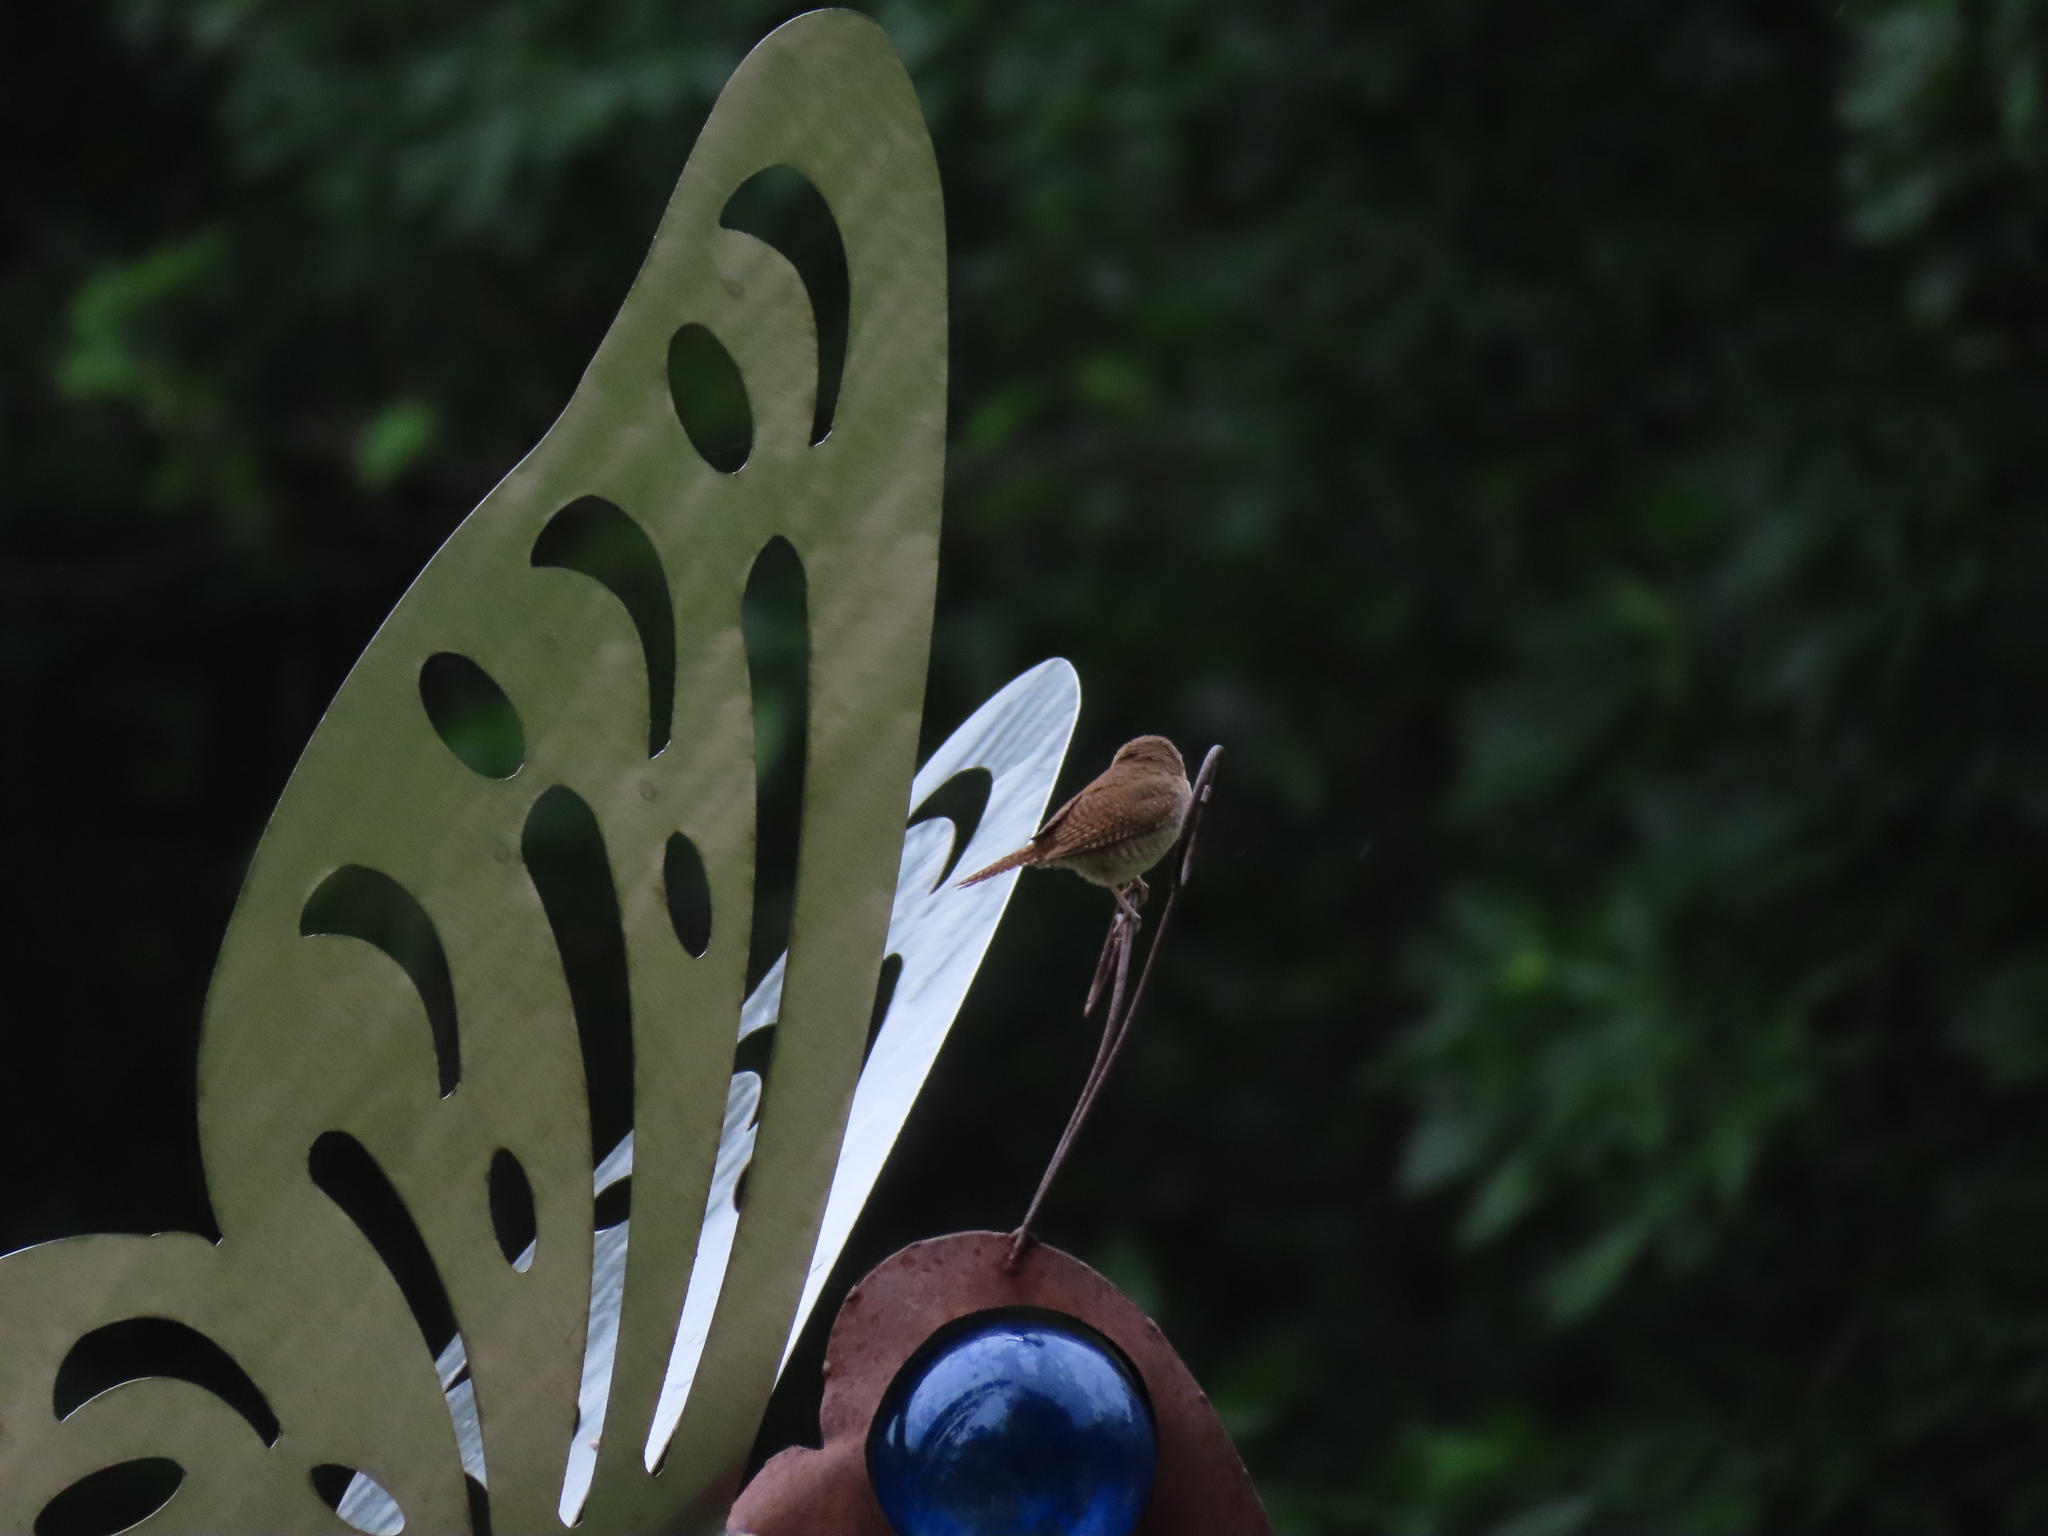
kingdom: Animalia
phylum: Chordata
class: Aves
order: Passeriformes
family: Troglodytidae
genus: Troglodytes
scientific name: Troglodytes aedon
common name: House wren
